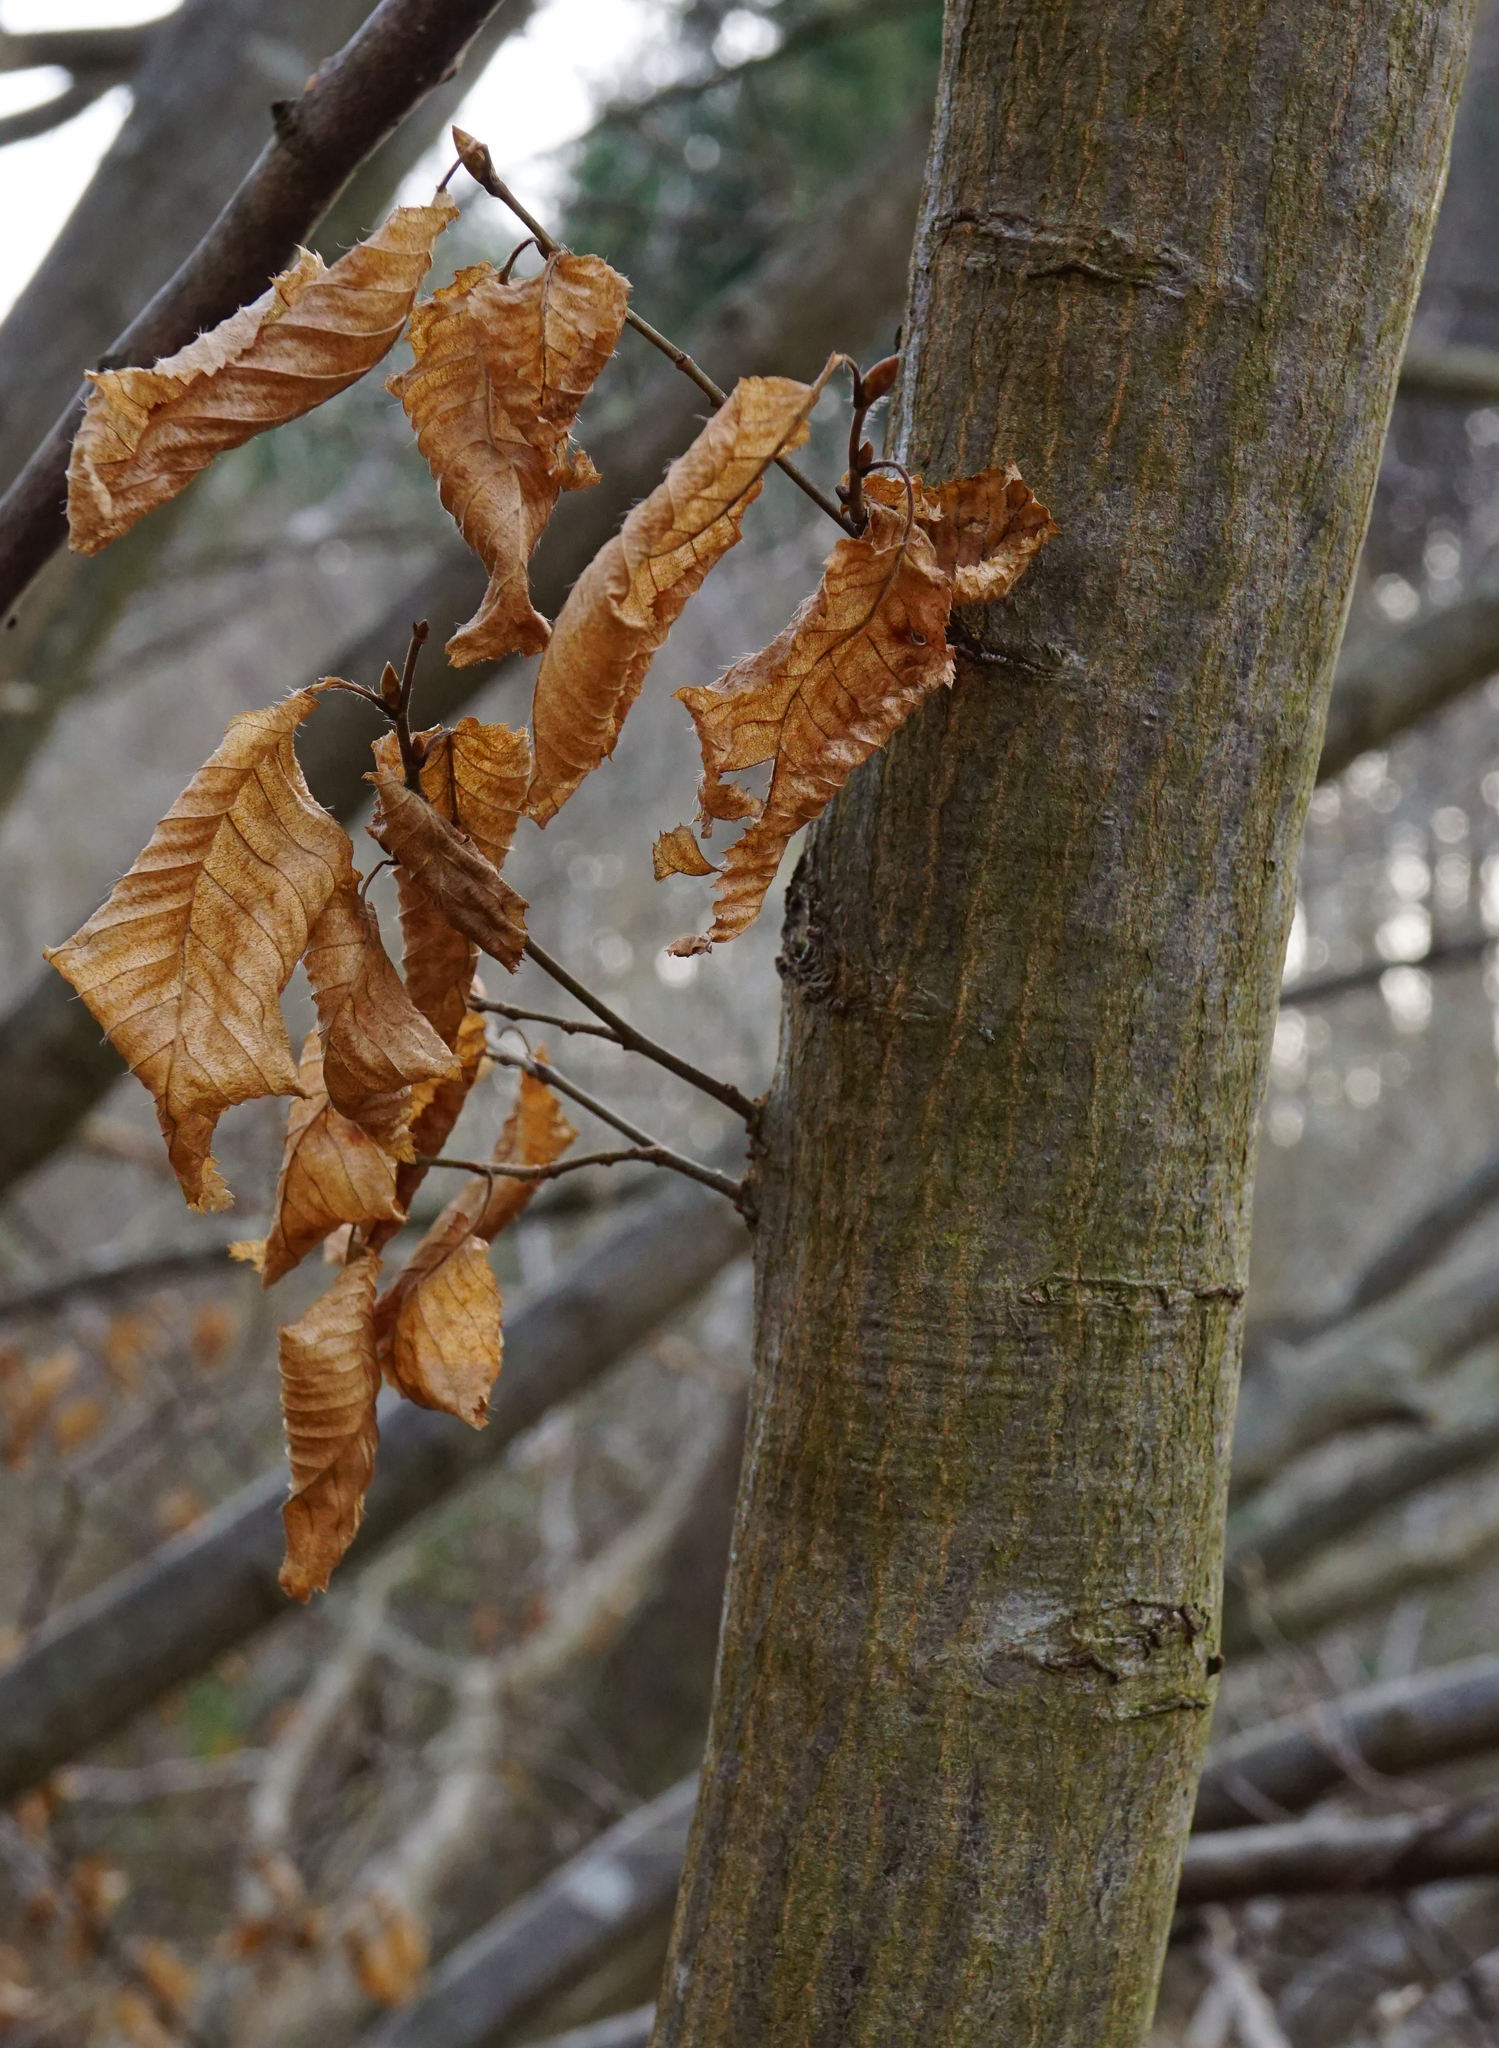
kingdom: Plantae
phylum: Tracheophyta
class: Magnoliopsida
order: Fagales
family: Betulaceae
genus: Carpinus
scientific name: Carpinus betulus
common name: Hornbeam
